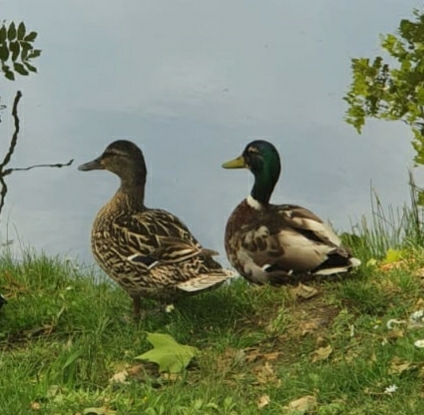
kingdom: Animalia
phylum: Chordata
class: Aves
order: Anseriformes
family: Anatidae
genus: Anas
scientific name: Anas platyrhynchos
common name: Mallard
